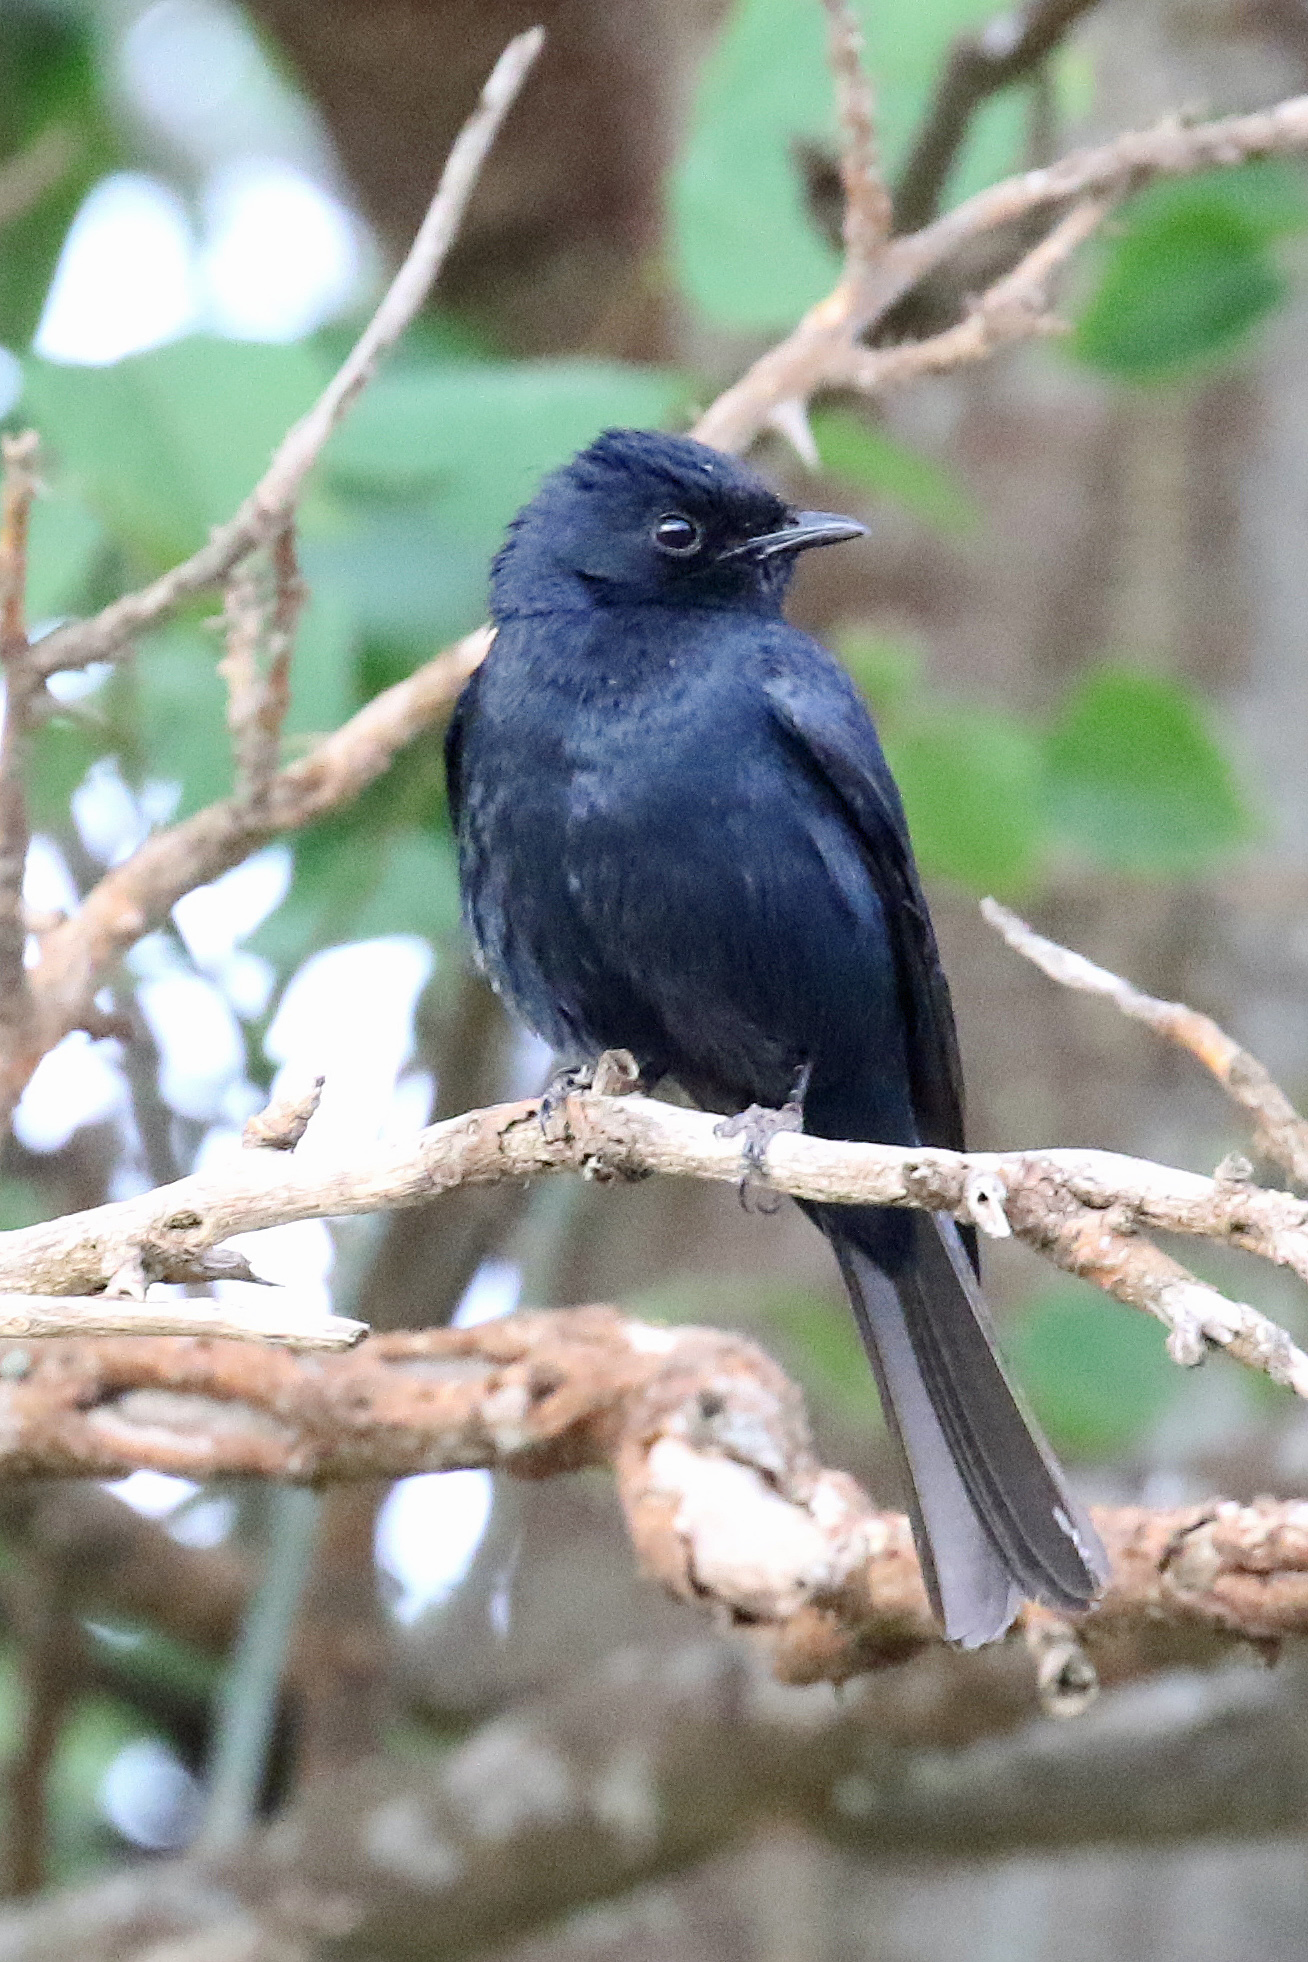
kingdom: Animalia
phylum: Chordata
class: Aves
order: Passeriformes
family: Dicruridae
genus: Dicrurus
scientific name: Dicrurus ludwigii
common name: Square-tailed drongo
